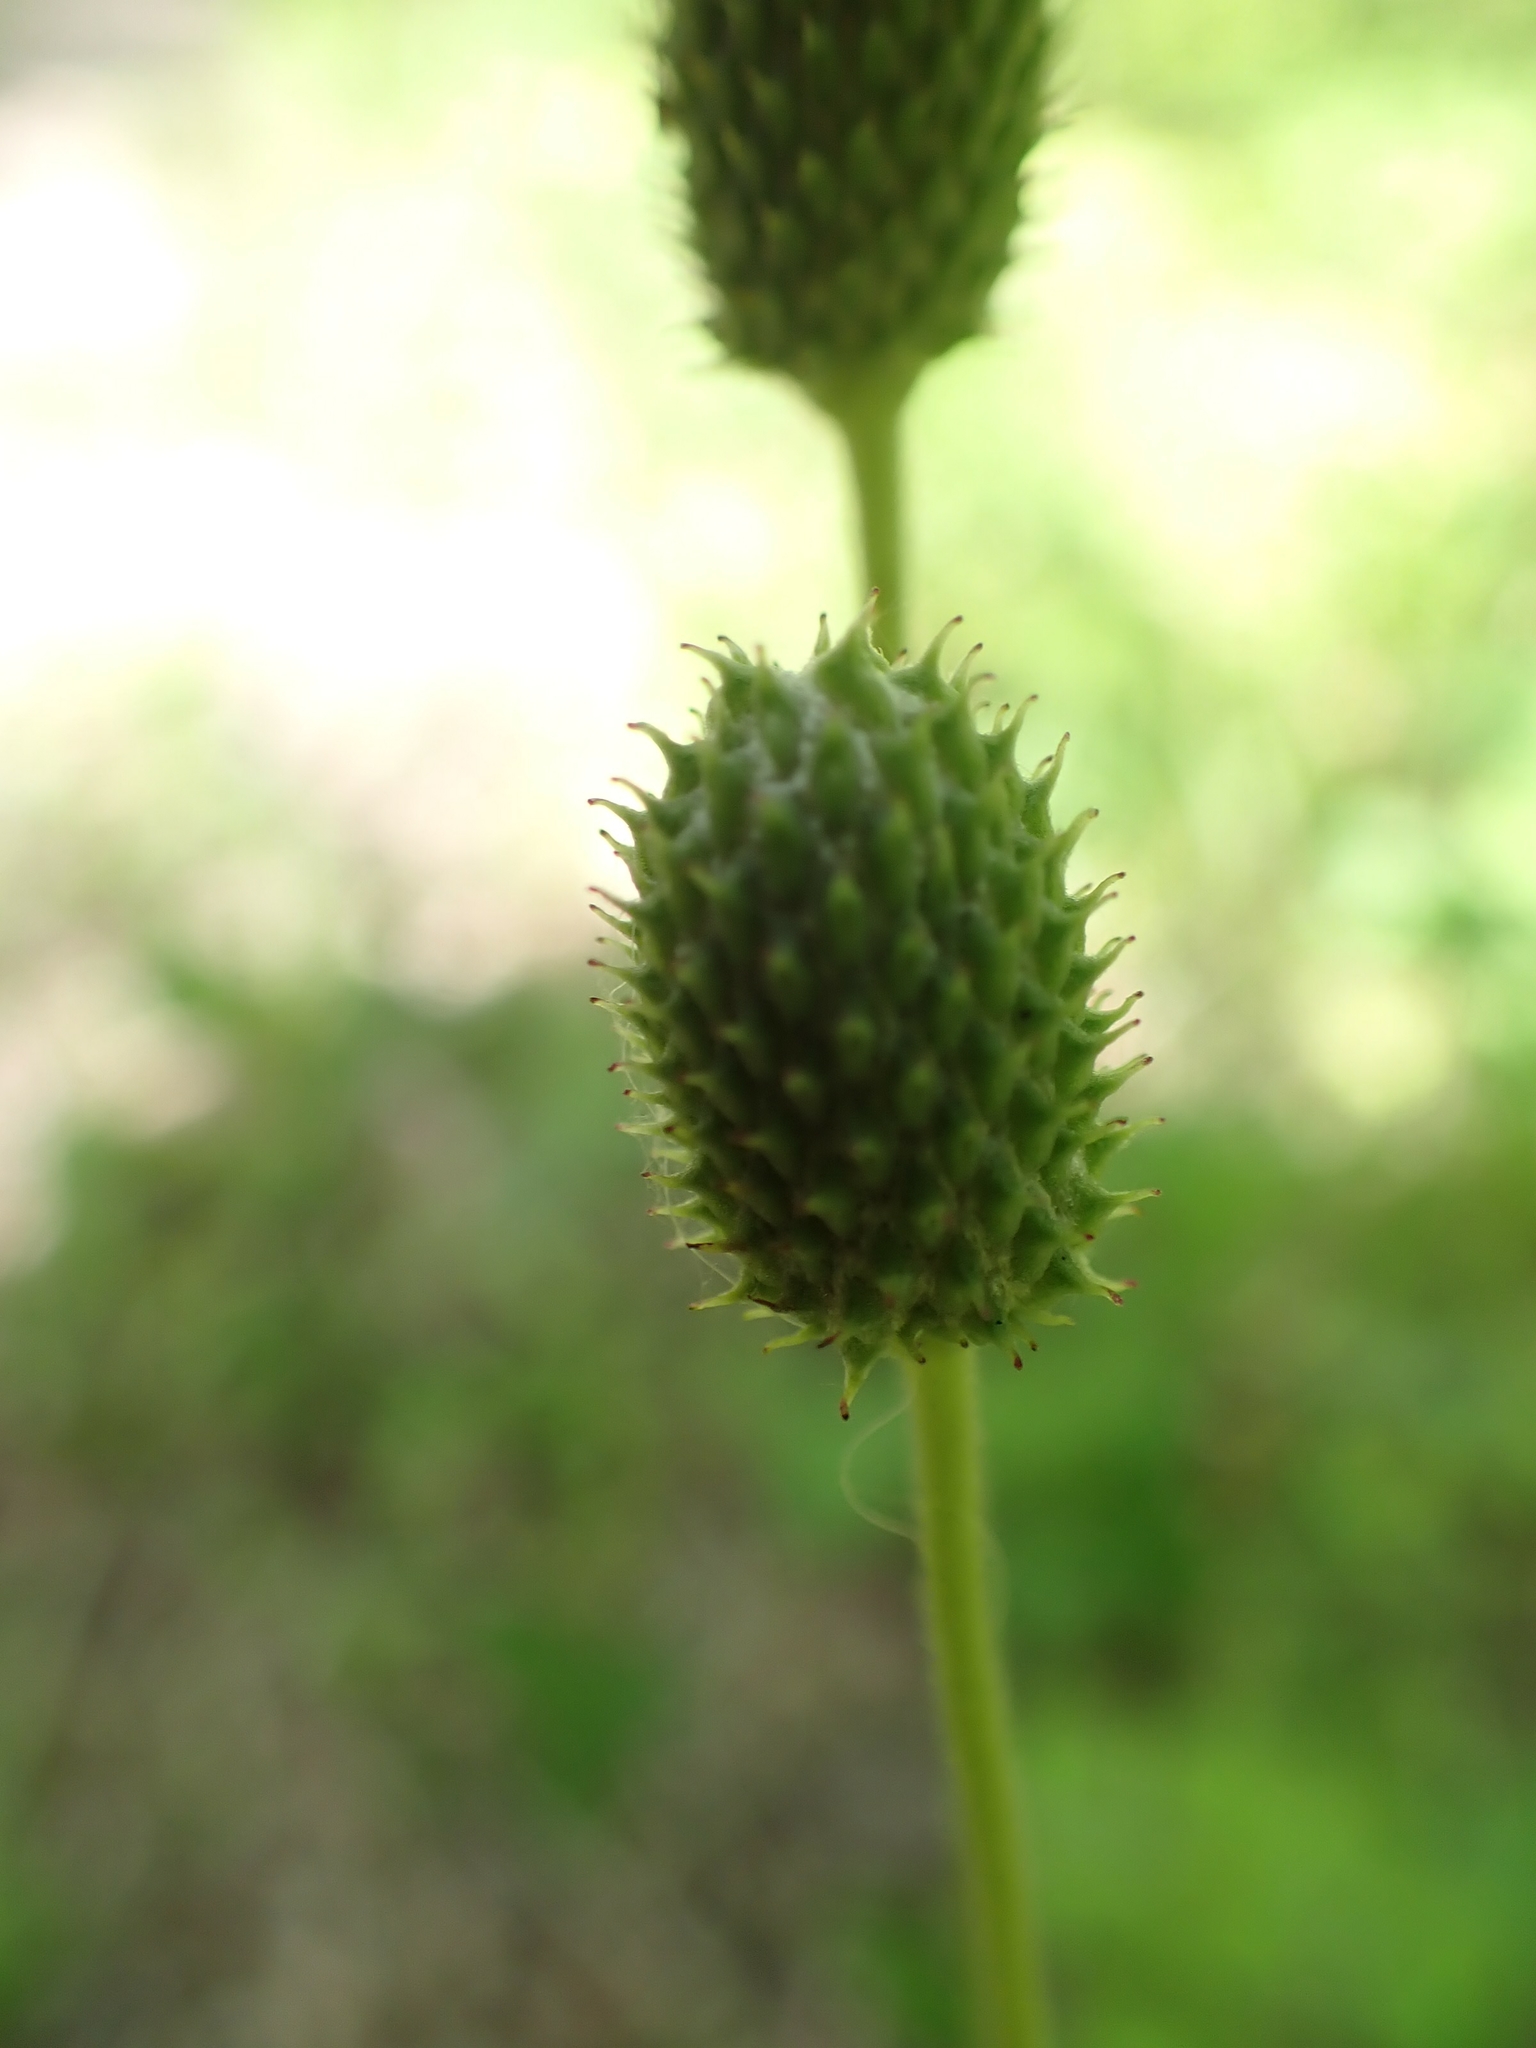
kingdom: Plantae
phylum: Tracheophyta
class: Magnoliopsida
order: Ranunculales
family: Ranunculaceae
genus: Anemone
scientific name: Anemone virginiana
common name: Tall anemone
